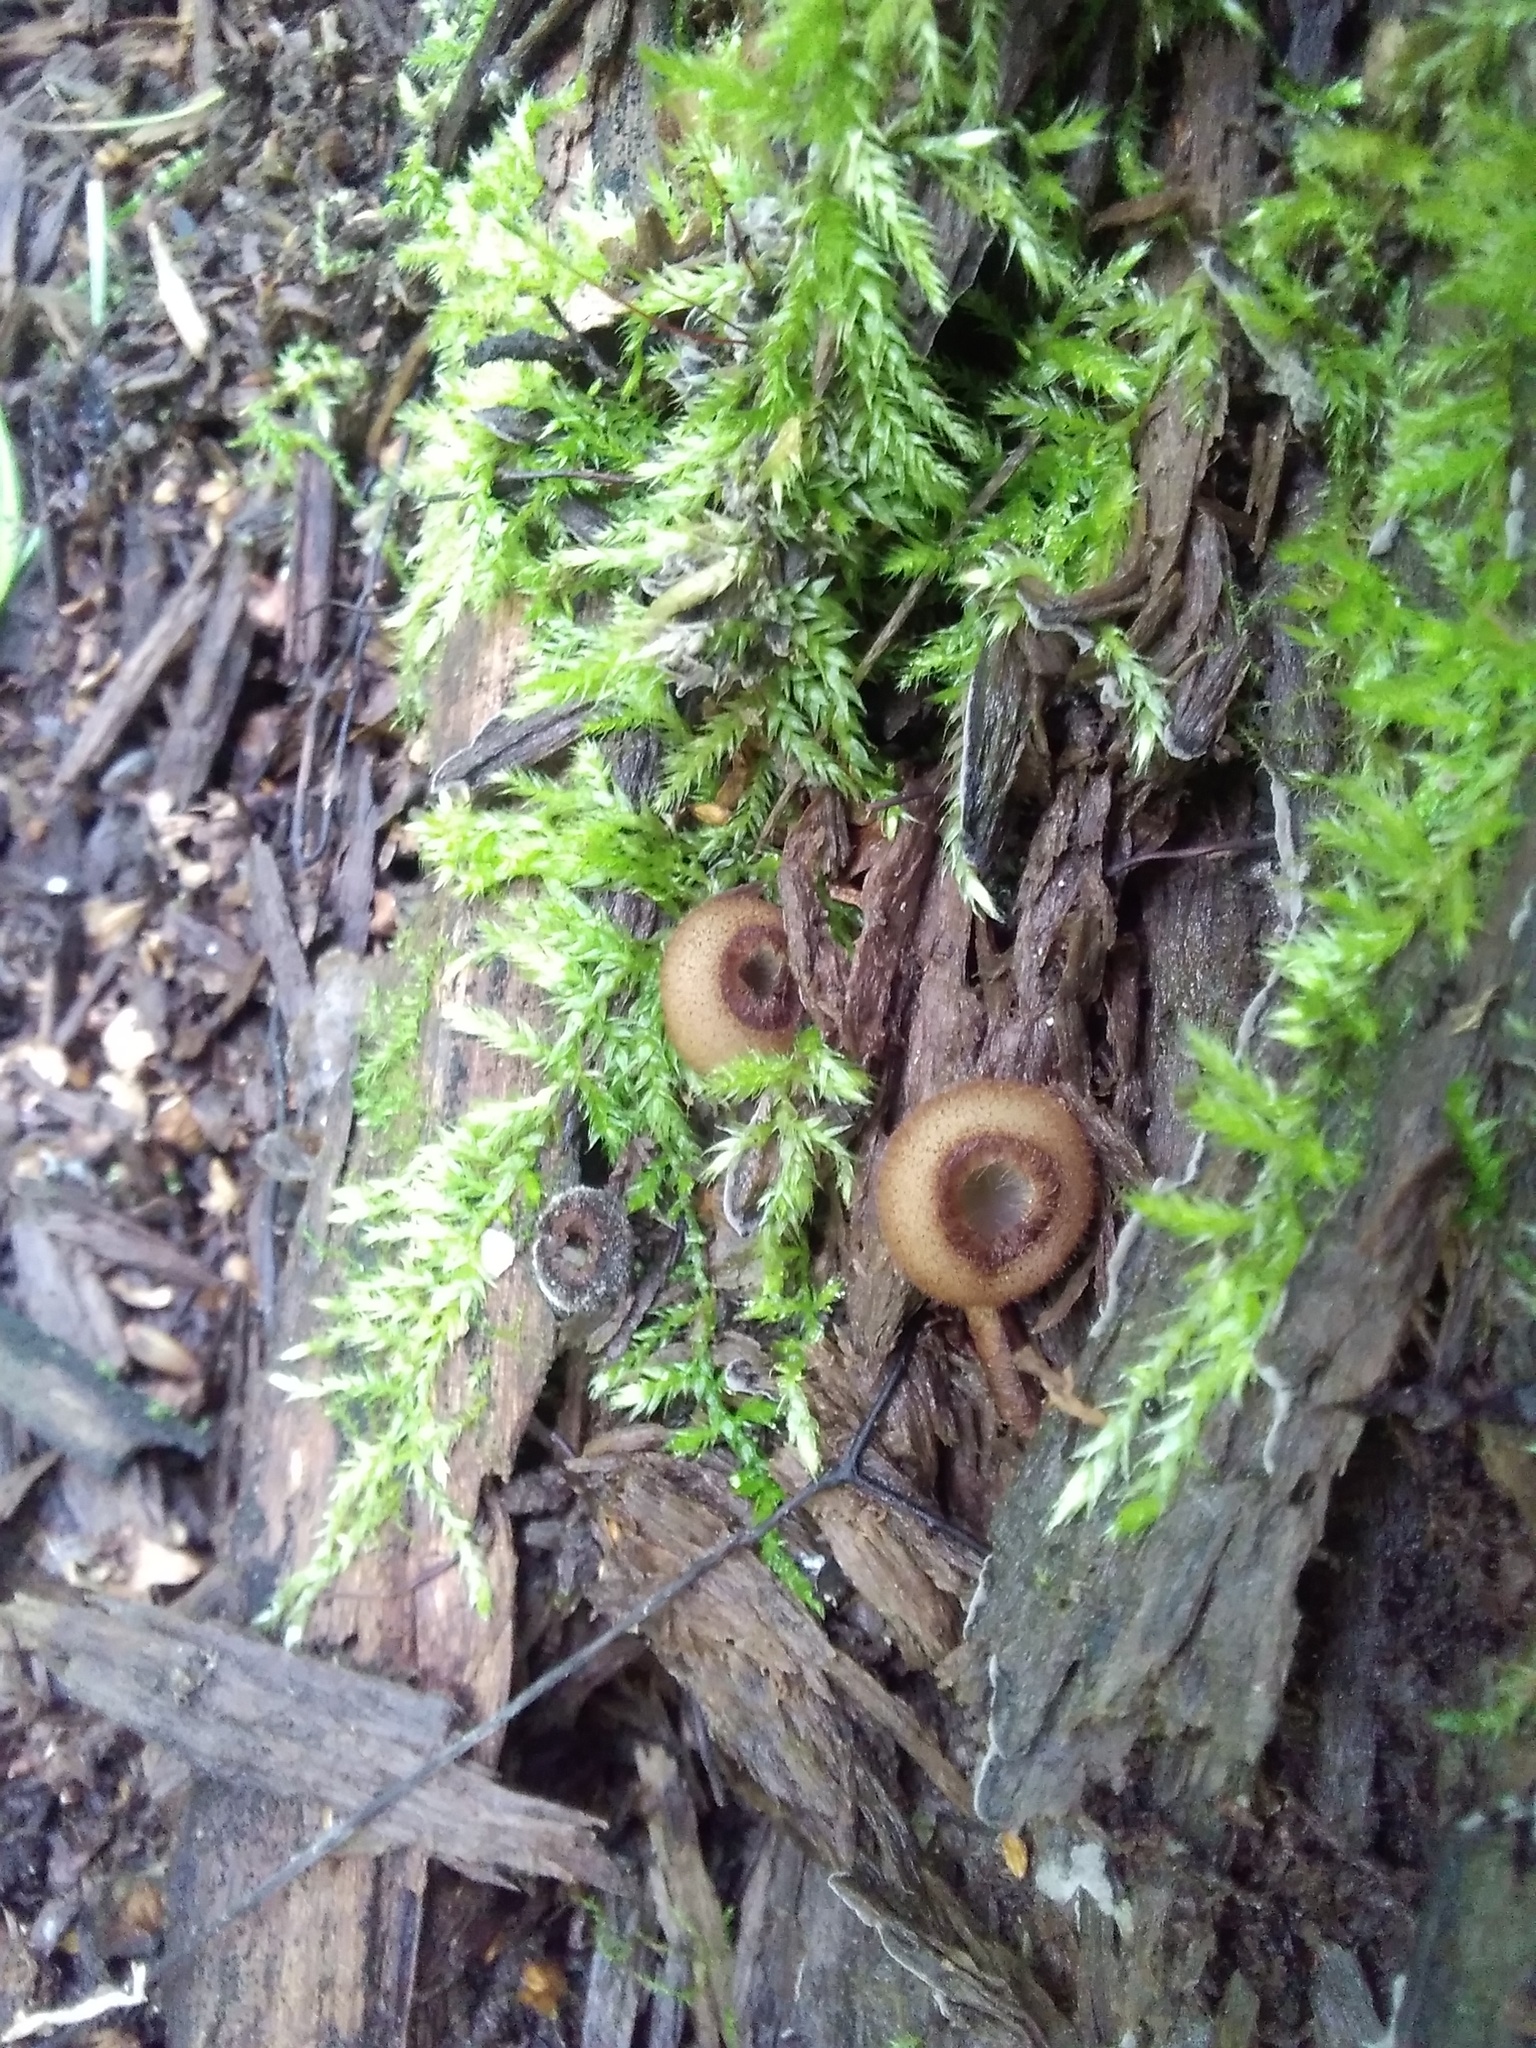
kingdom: Fungi
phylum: Ascomycota
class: Pezizomycetes
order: Pezizales
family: Pyronemataceae
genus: Humaria
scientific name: Humaria hemisphaerica
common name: Glazed cup
